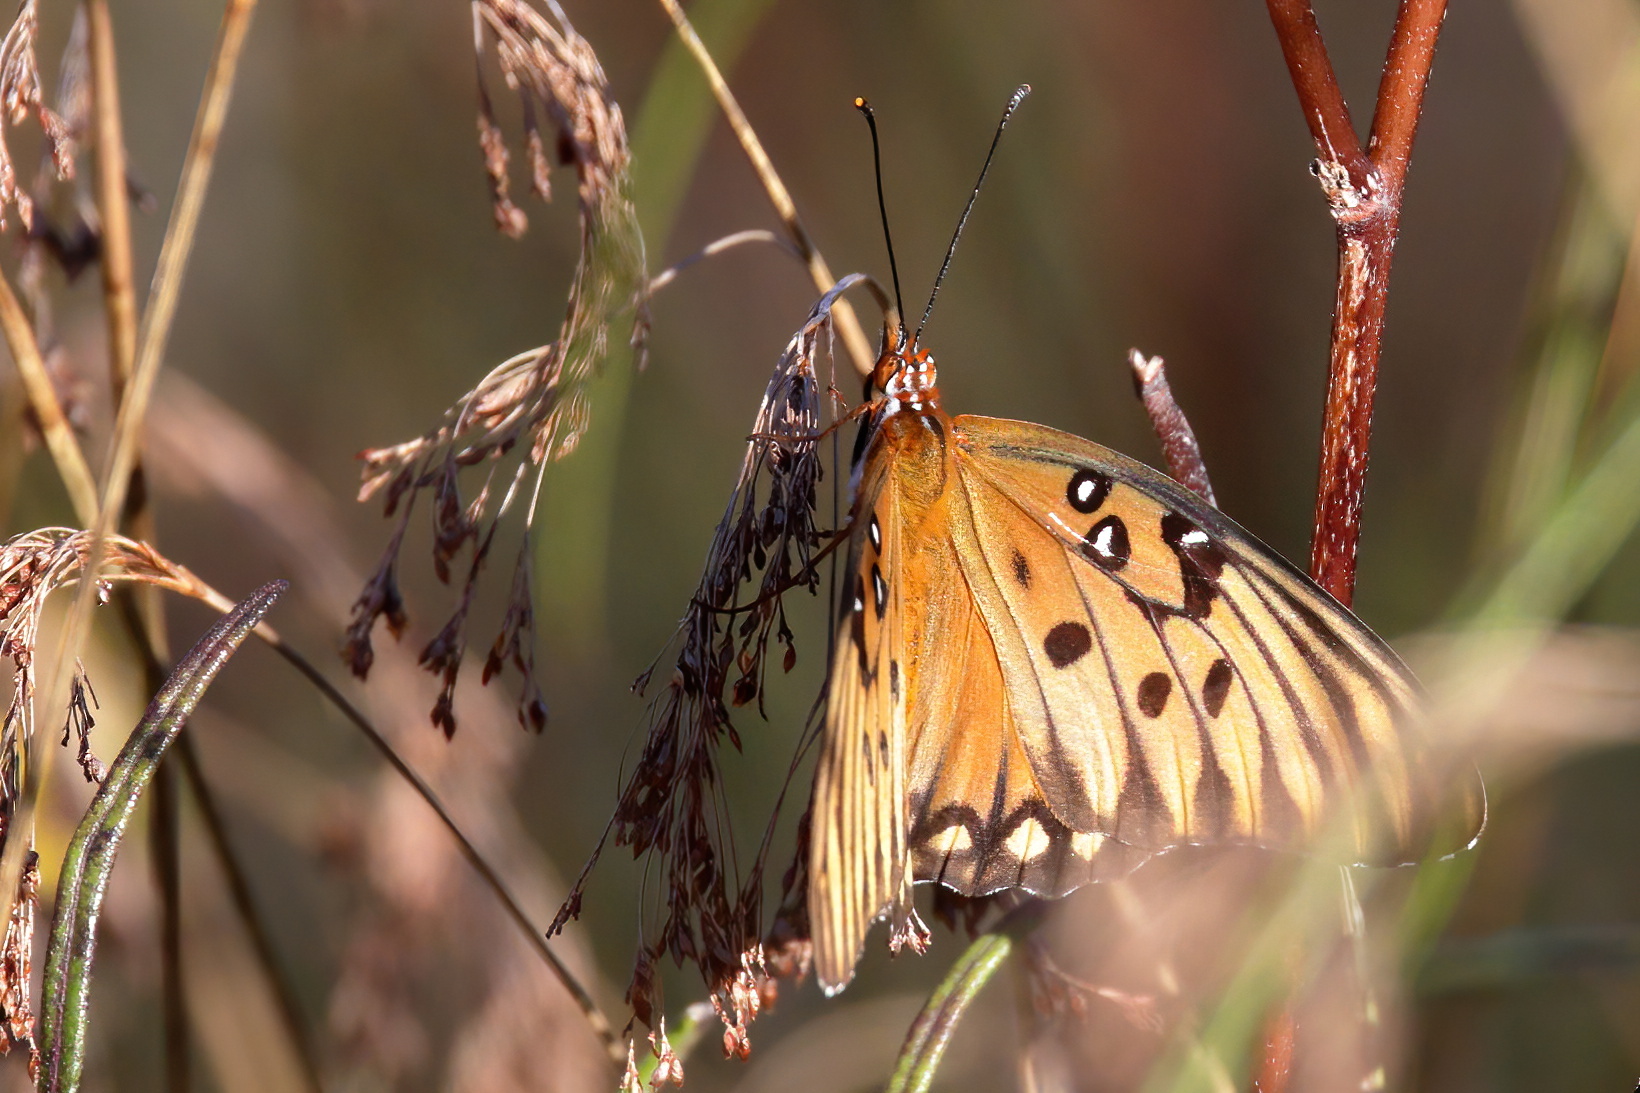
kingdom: Animalia
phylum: Arthropoda
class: Insecta
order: Lepidoptera
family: Nymphalidae
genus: Dione
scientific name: Dione vanillae
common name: Gulf fritillary
